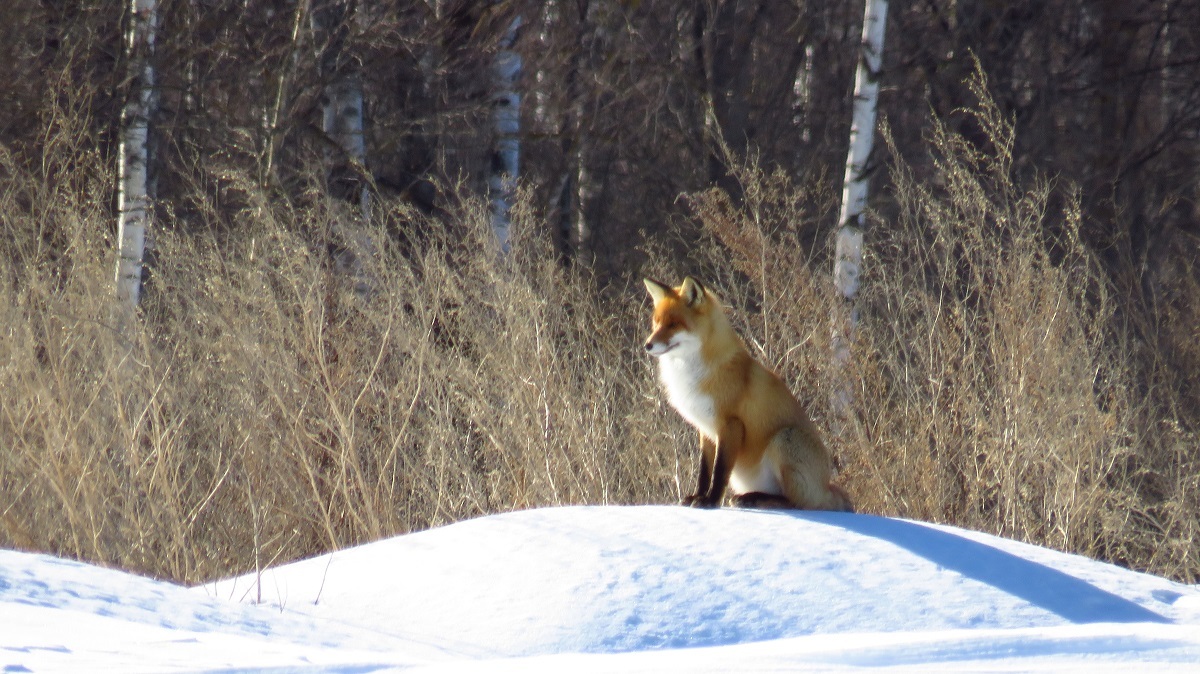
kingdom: Animalia
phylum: Chordata
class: Mammalia
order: Carnivora
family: Canidae
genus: Vulpes
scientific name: Vulpes vulpes
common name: Red fox
